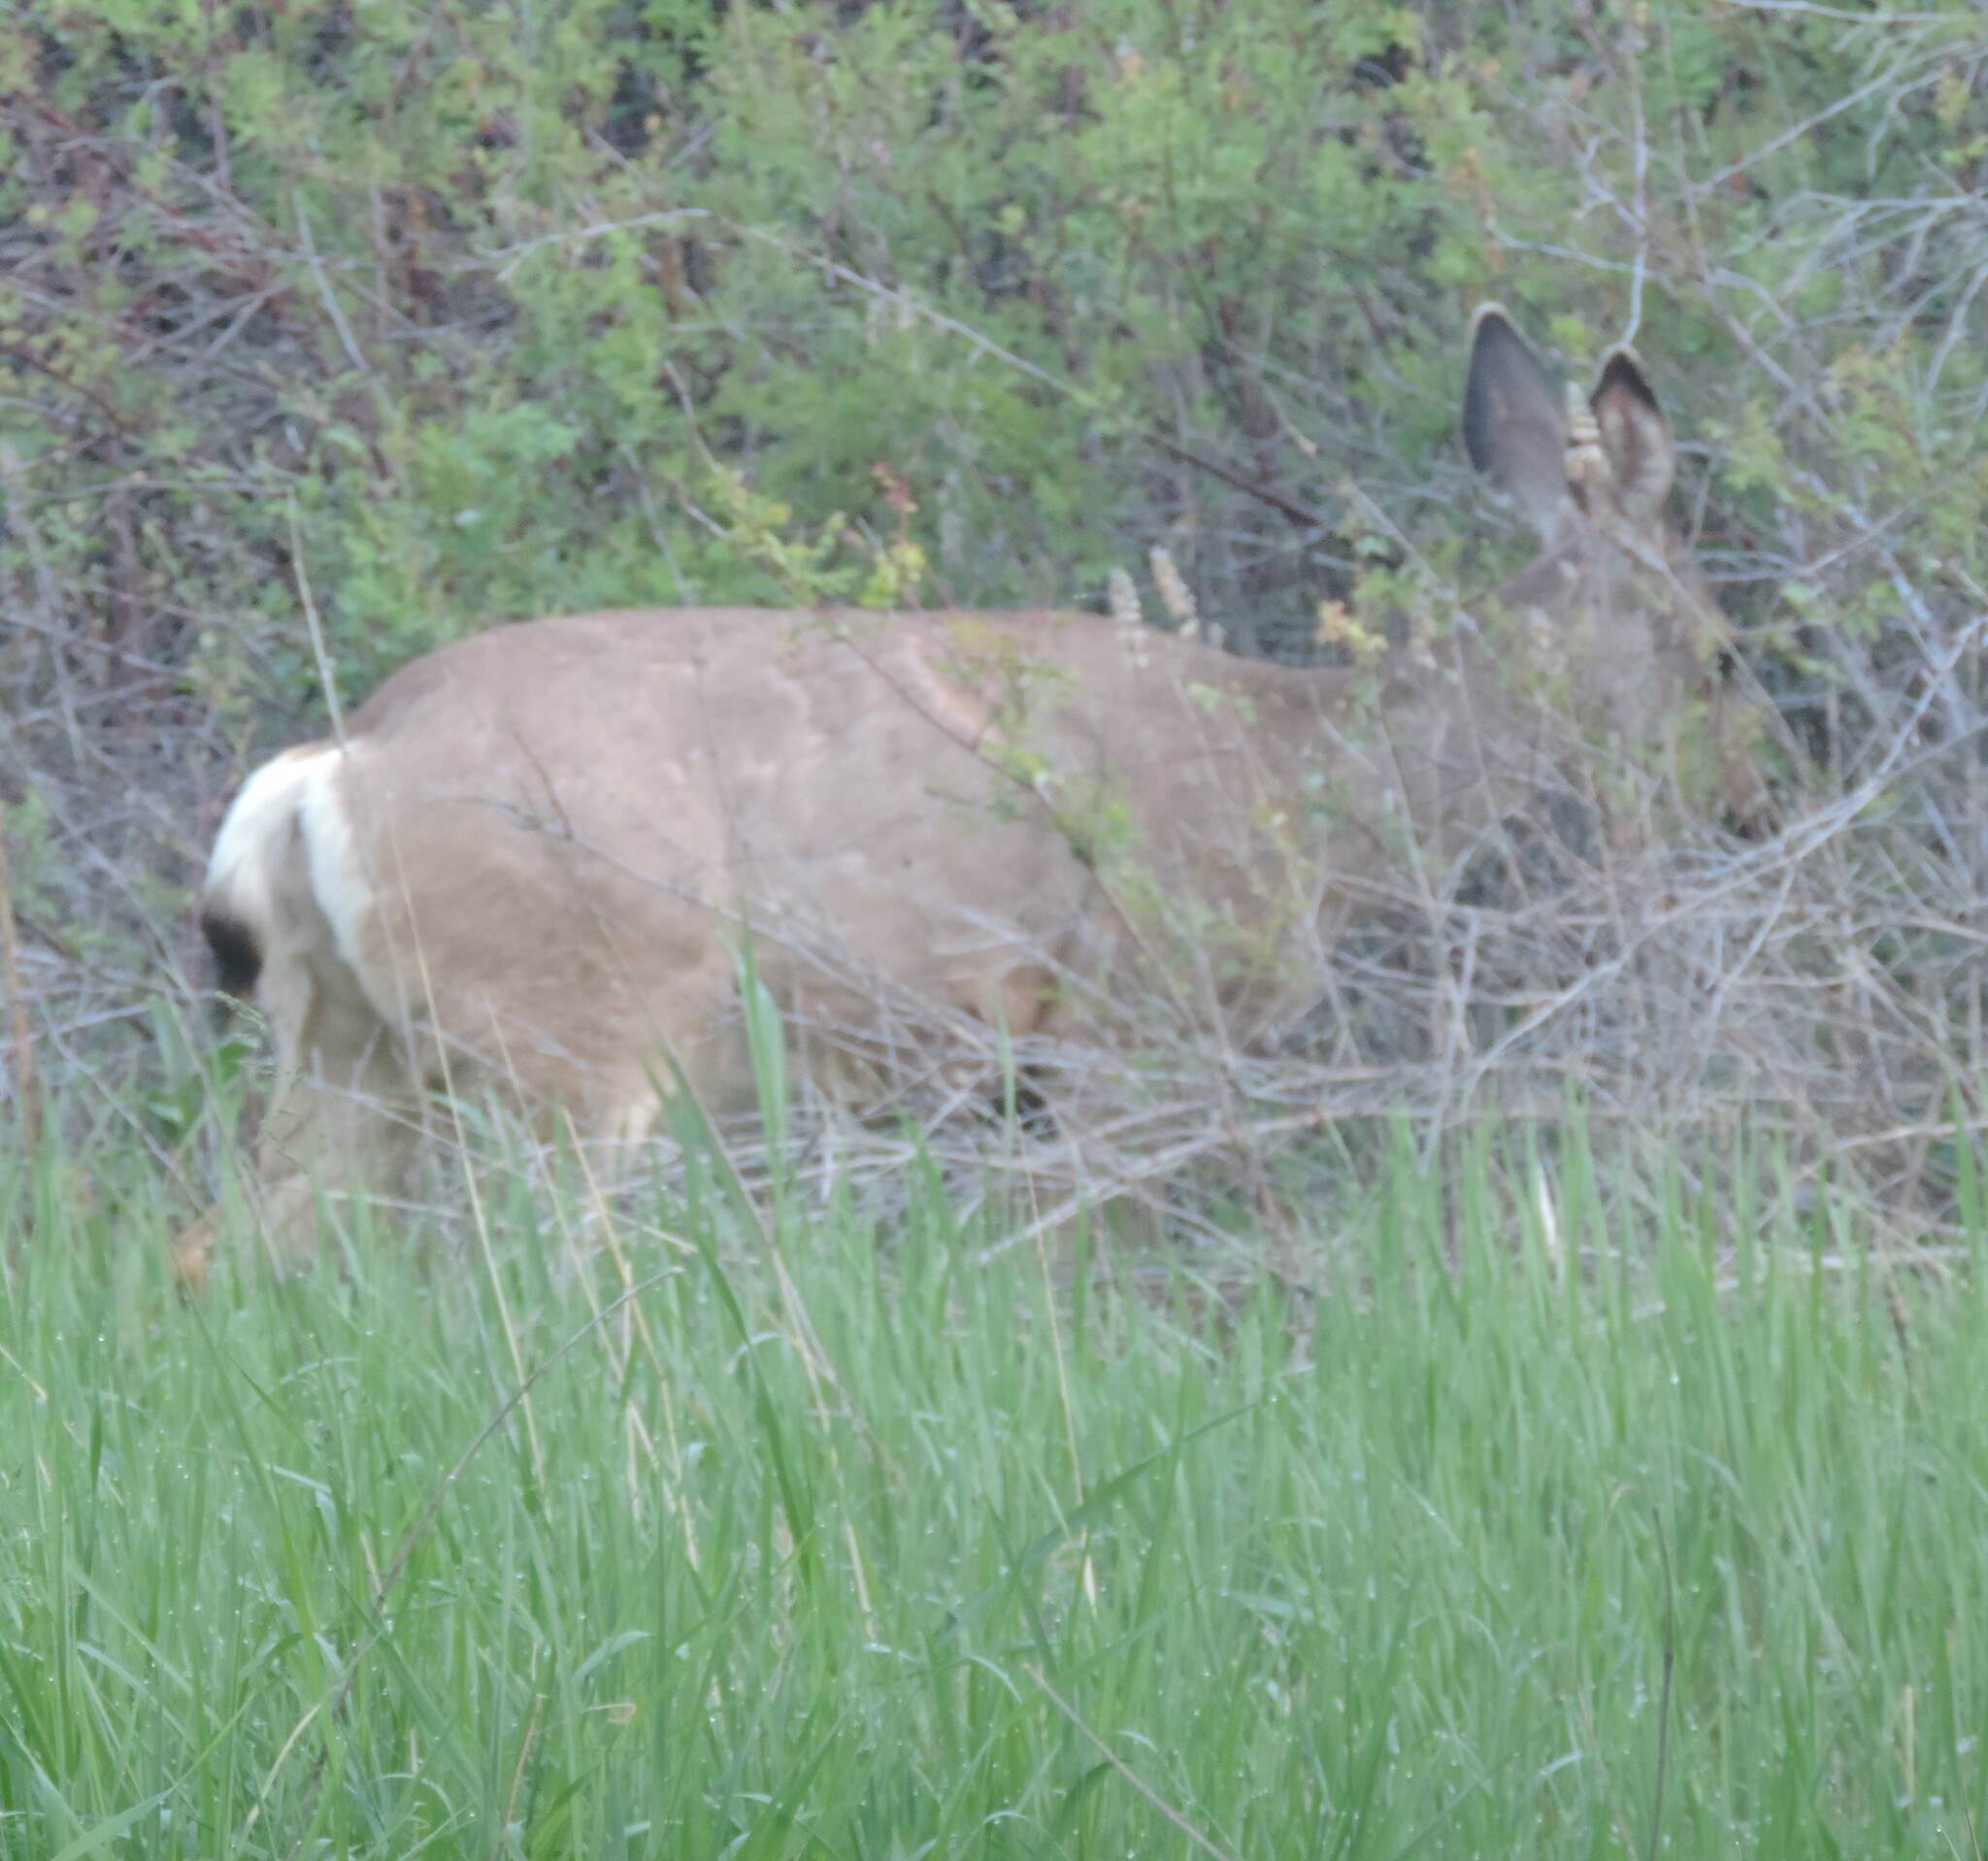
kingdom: Animalia
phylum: Chordata
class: Mammalia
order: Artiodactyla
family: Cervidae
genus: Odocoileus
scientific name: Odocoileus hemionus
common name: Mule deer
